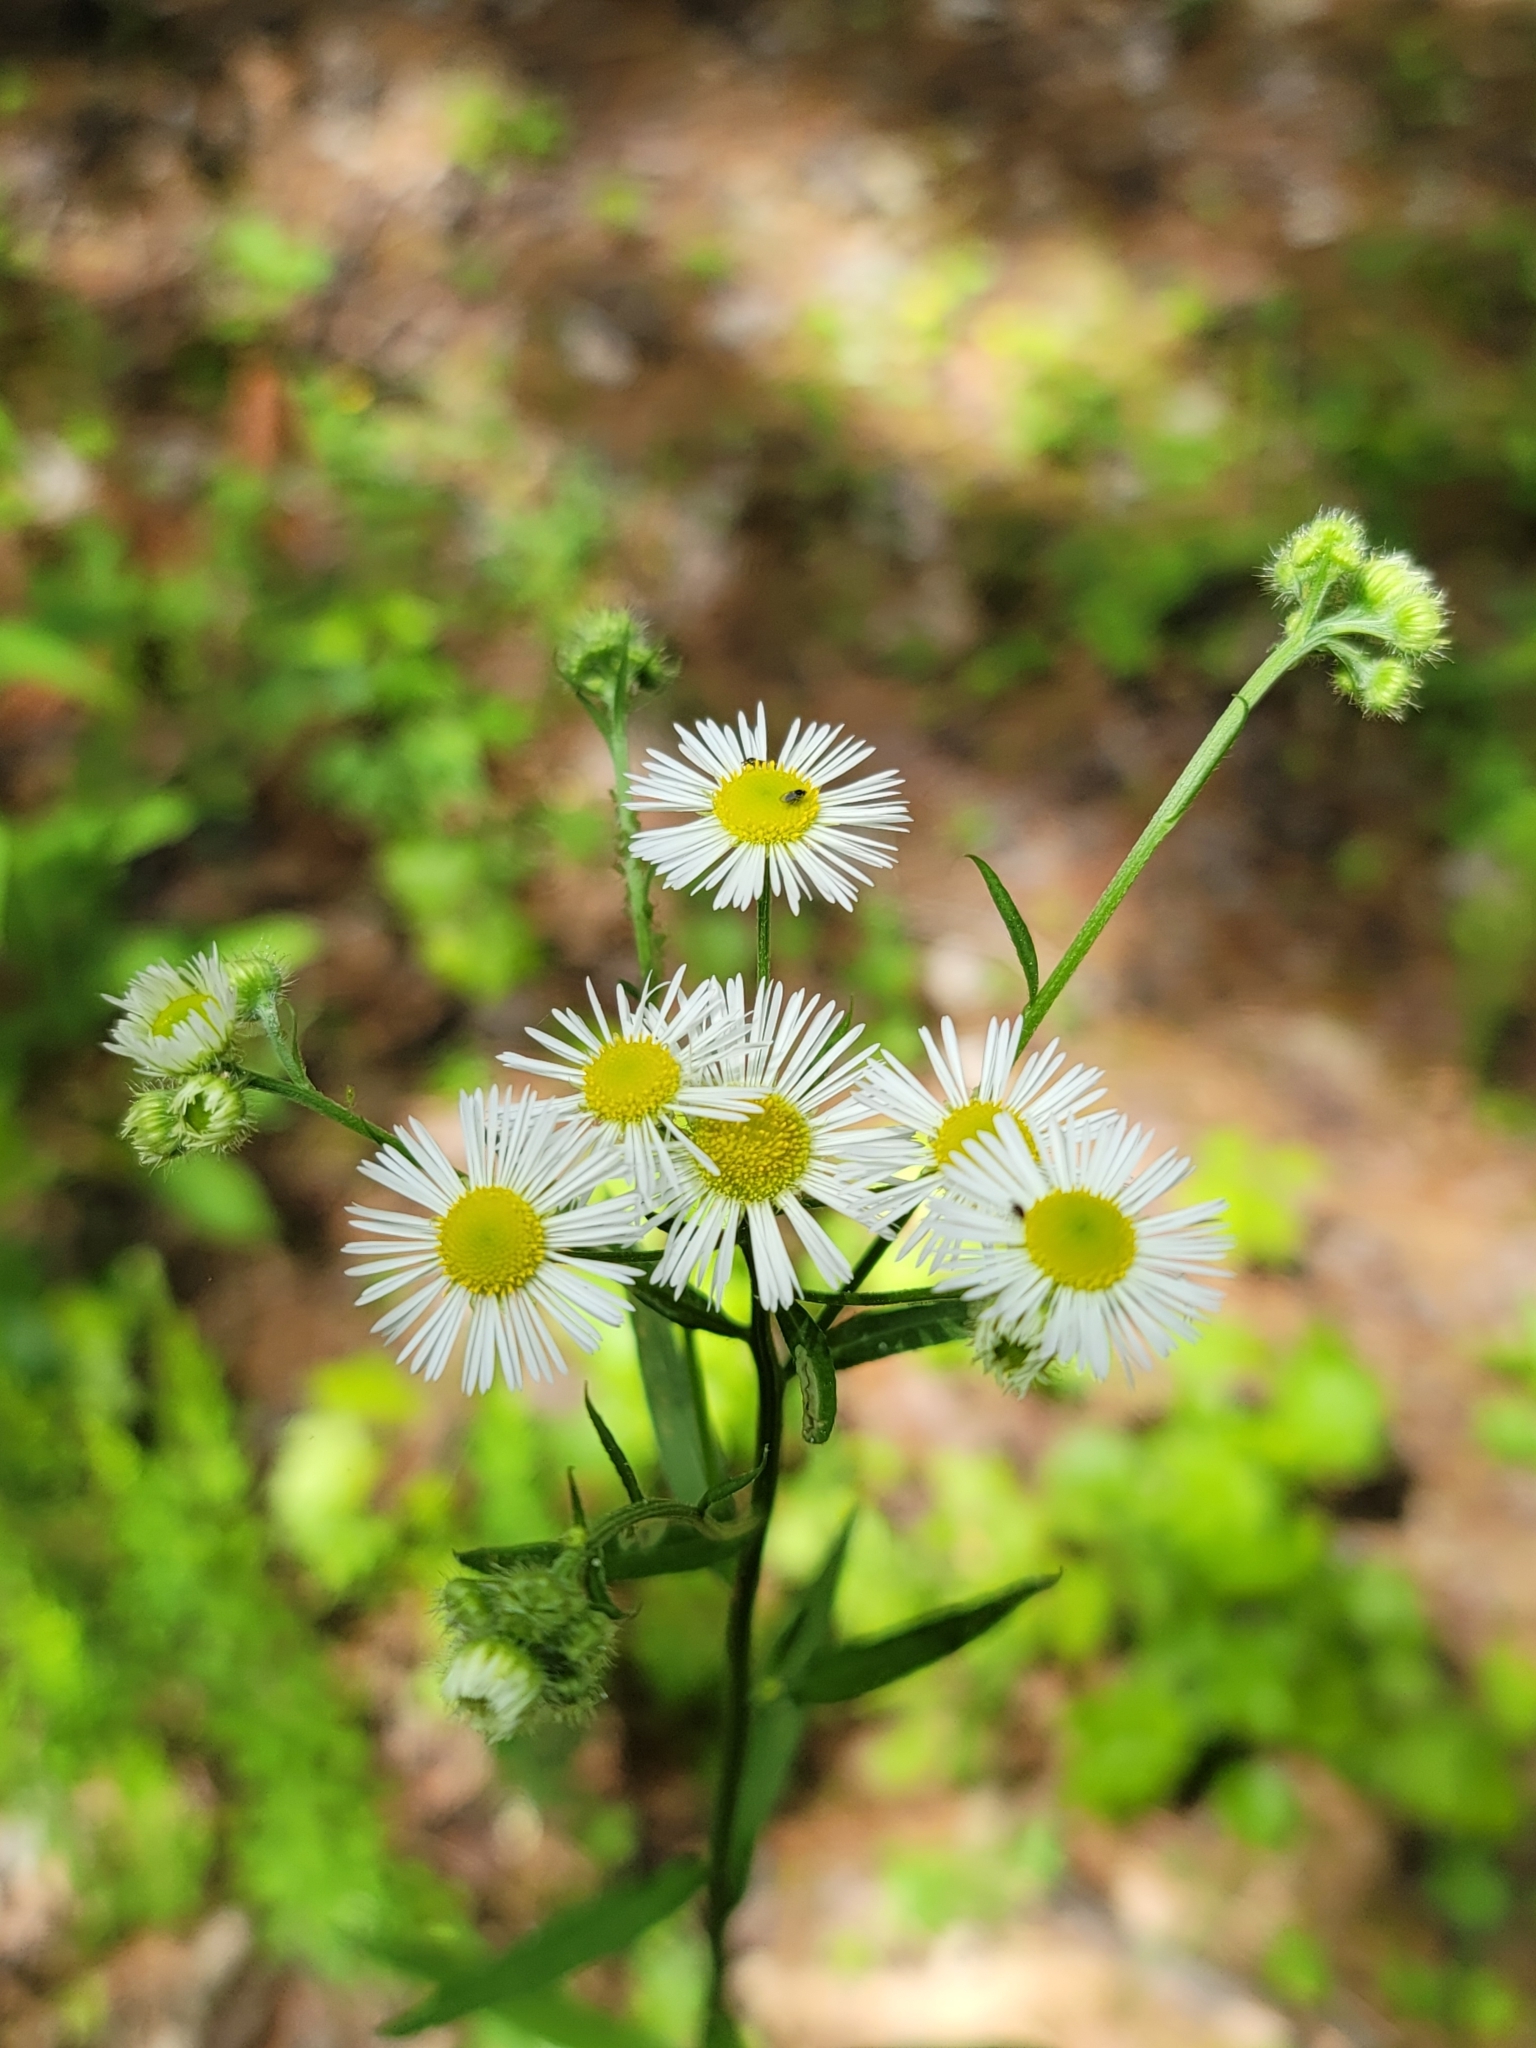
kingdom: Plantae
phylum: Tracheophyta
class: Magnoliopsida
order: Asterales
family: Asteraceae
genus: Erigeron
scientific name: Erigeron annuus
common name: Tall fleabane
